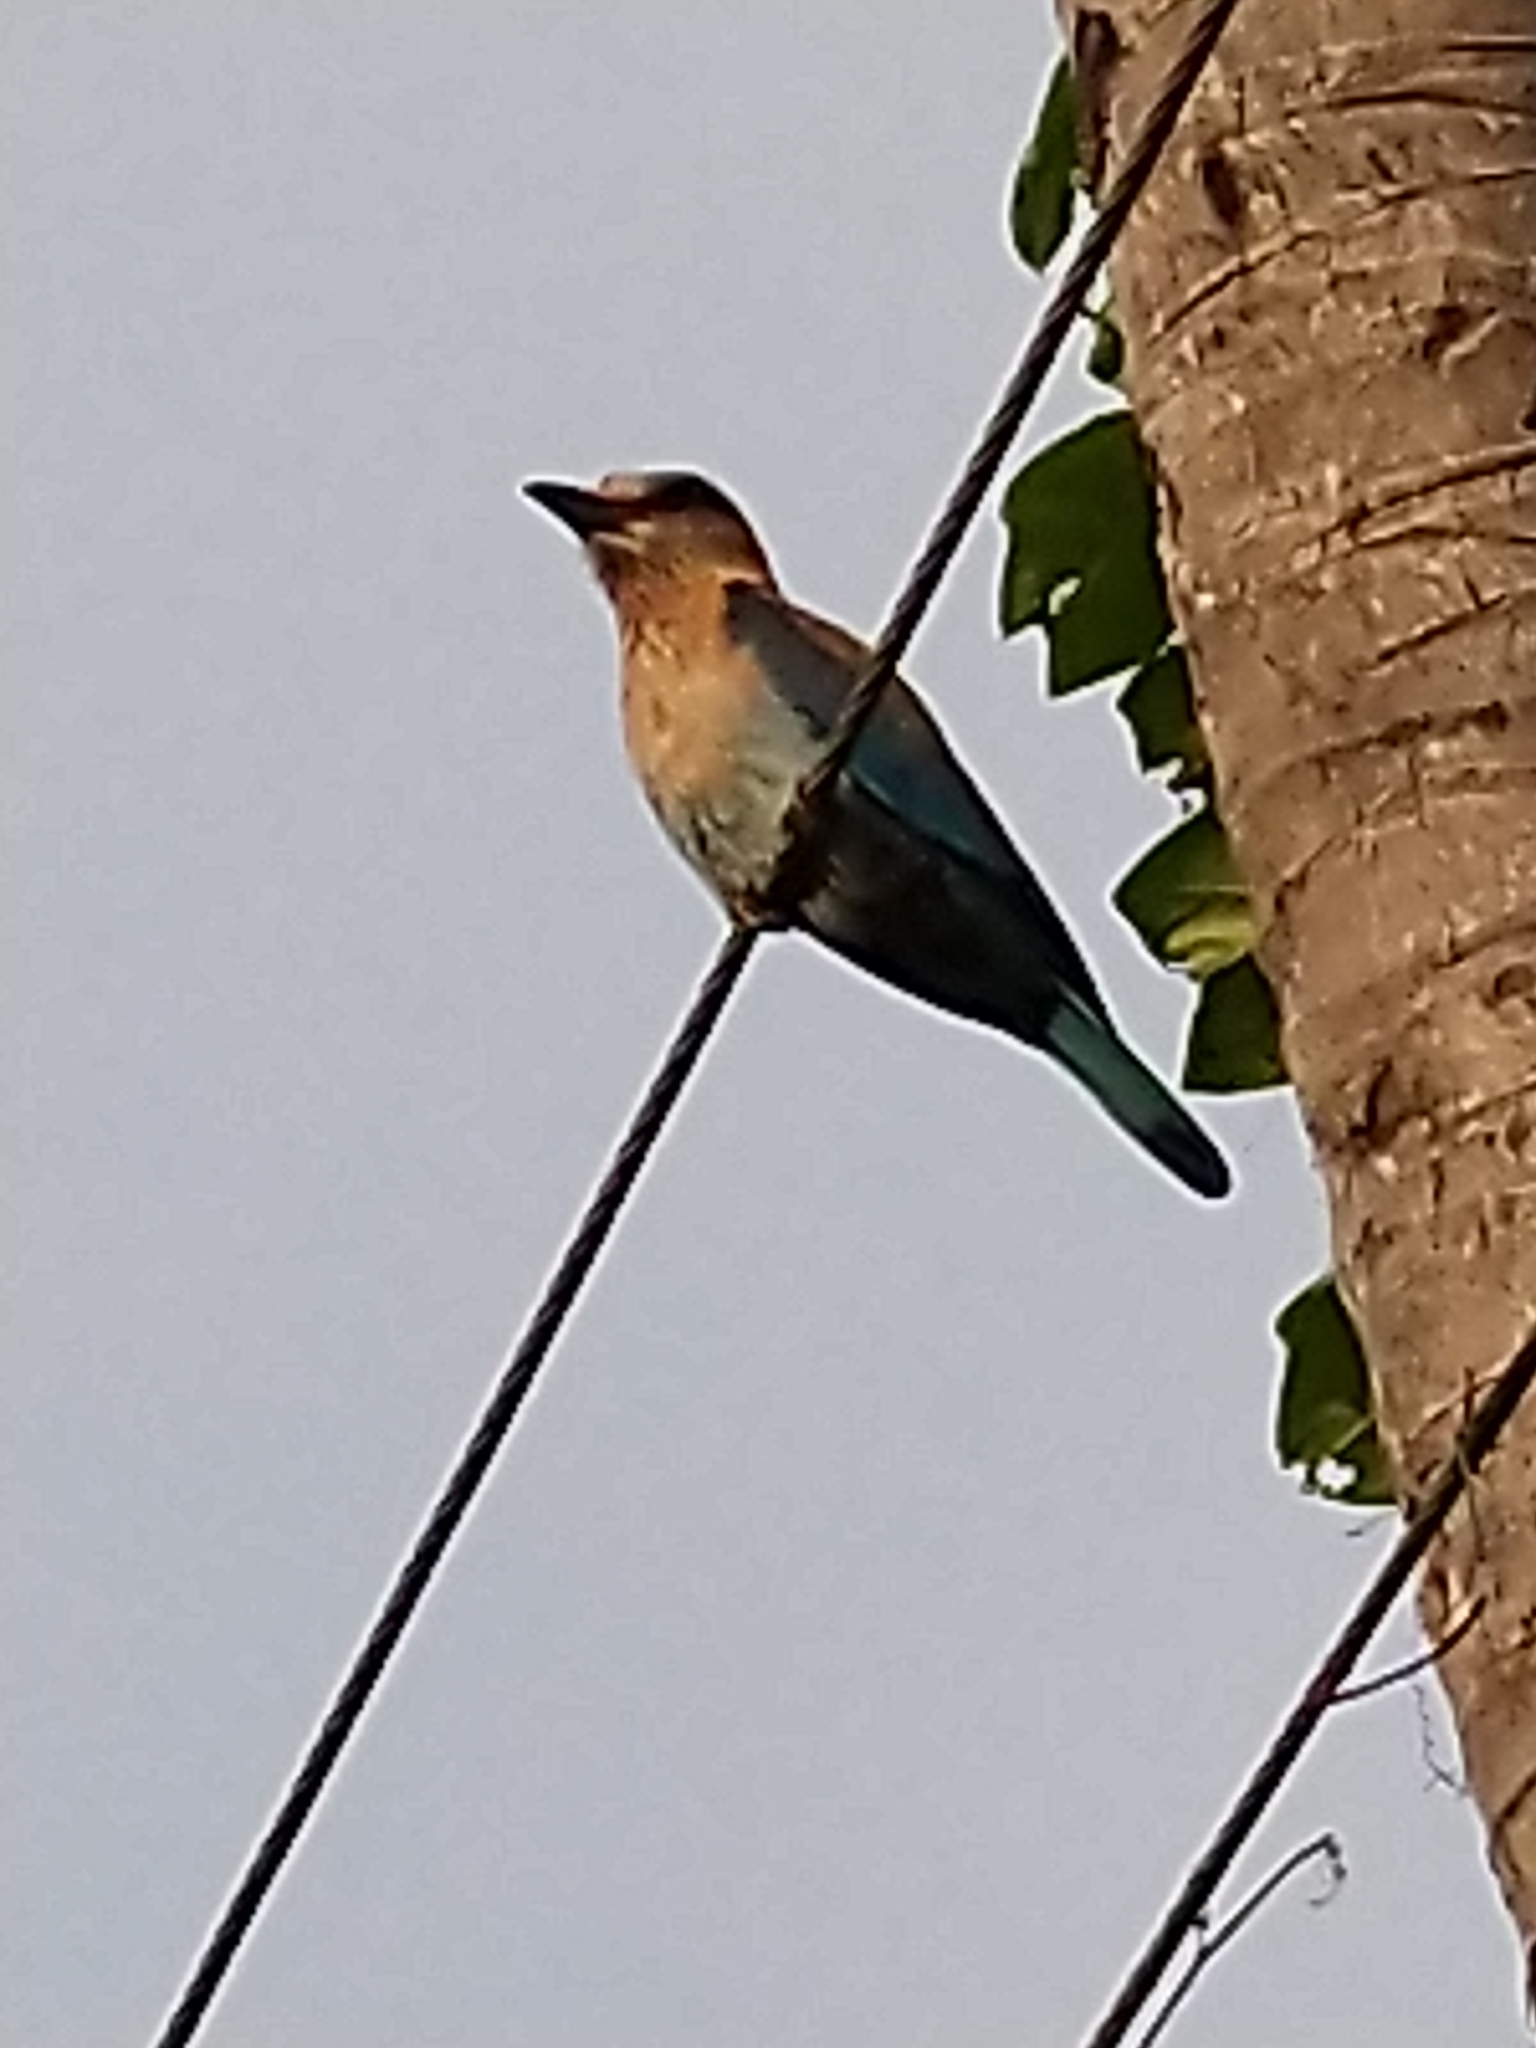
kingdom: Animalia
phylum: Chordata
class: Aves
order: Coraciiformes
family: Coraciidae
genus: Coracias
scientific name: Coracias benghalensis
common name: Indian roller
